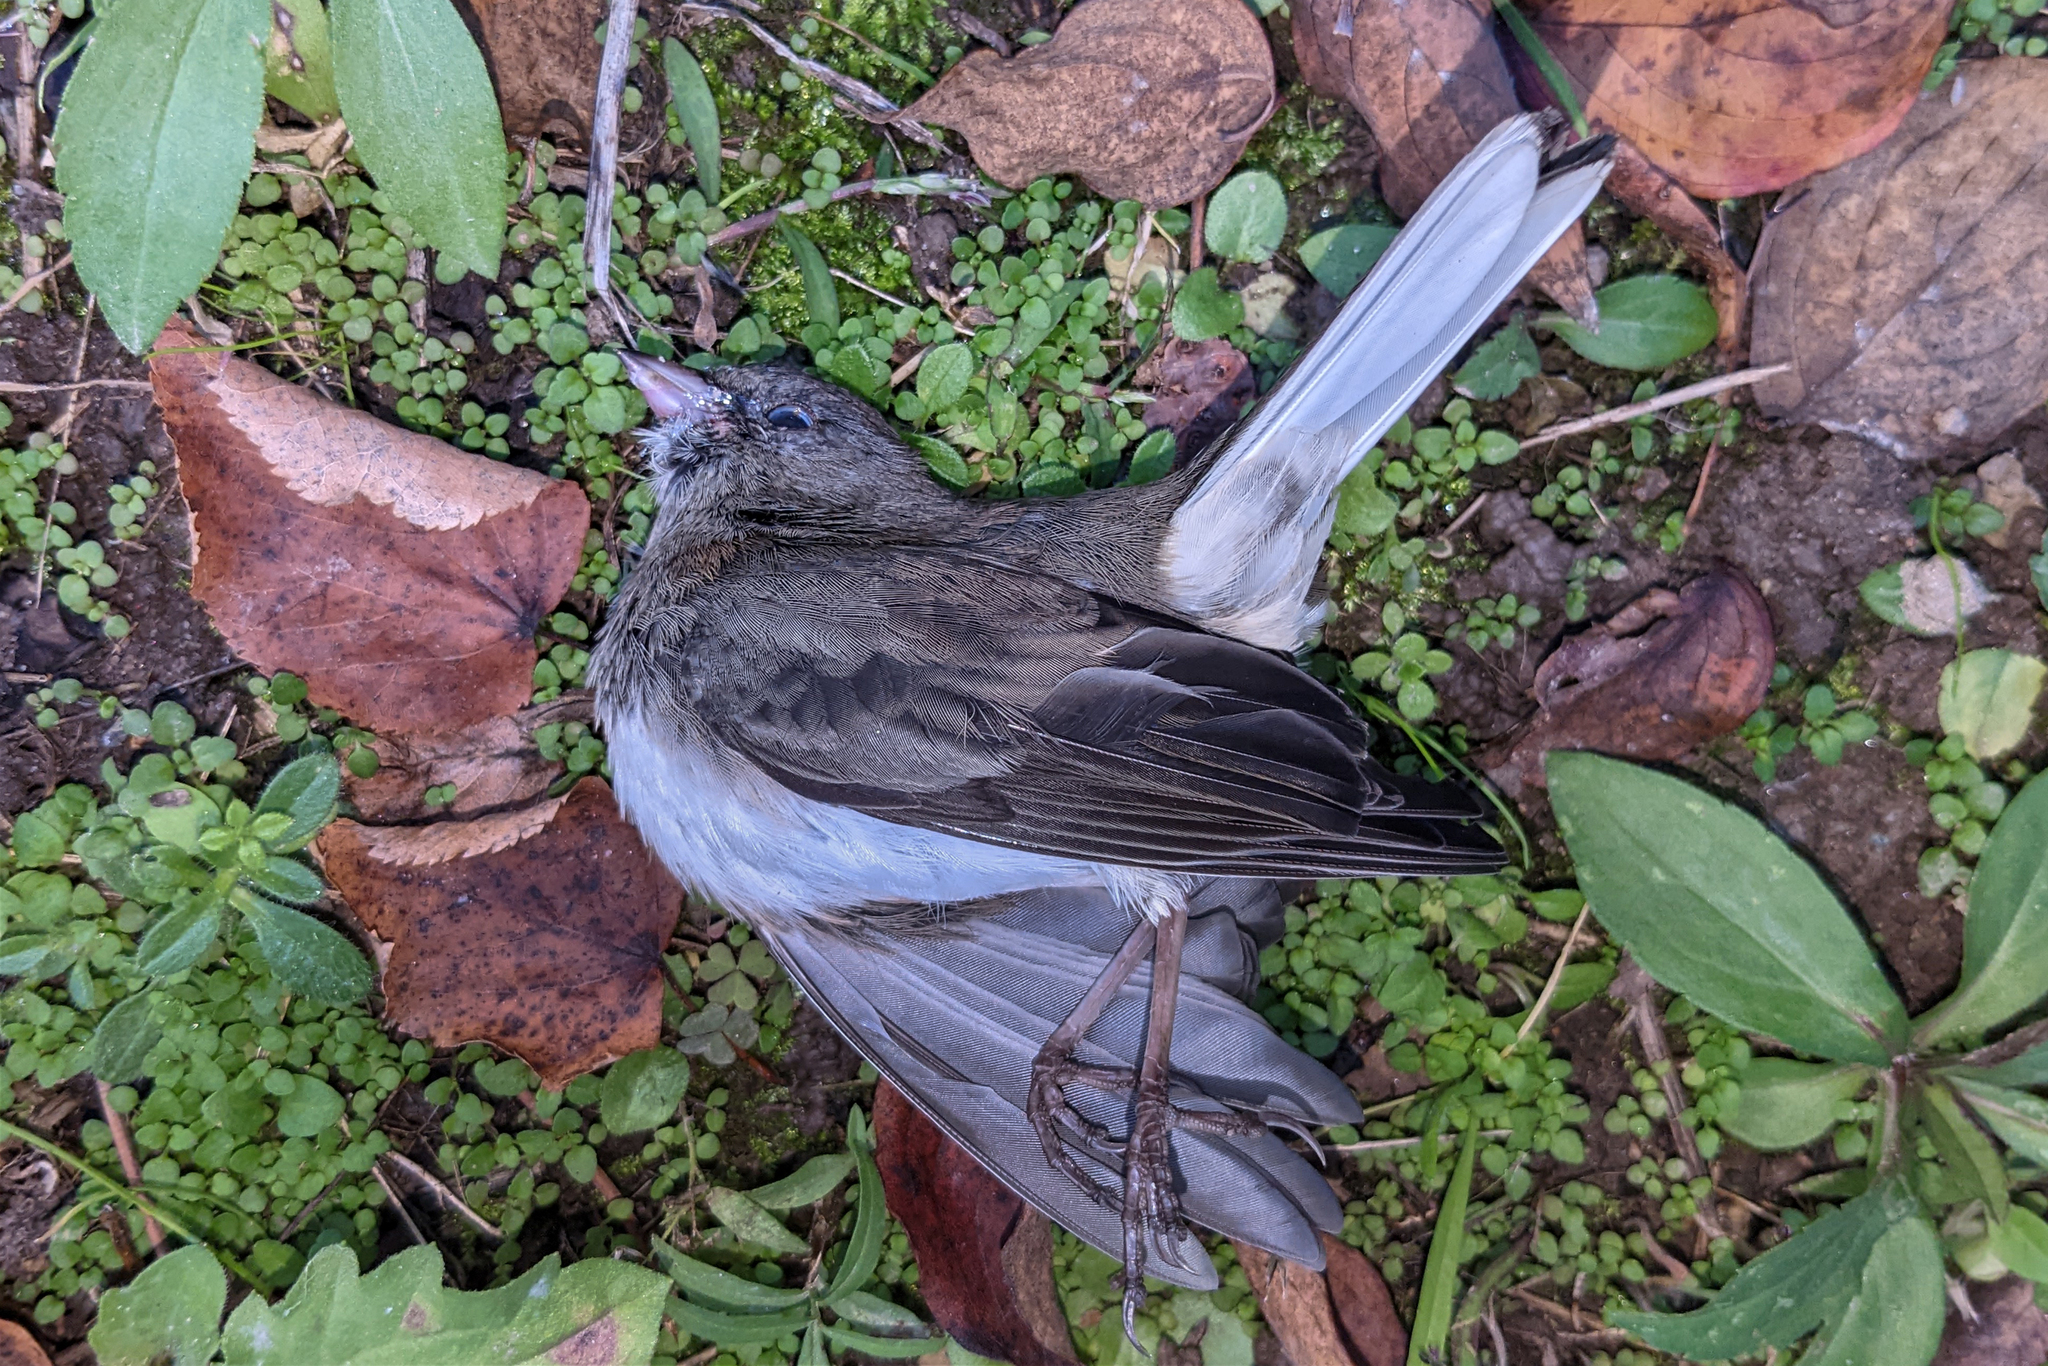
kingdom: Animalia
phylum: Chordata
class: Aves
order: Passeriformes
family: Passerellidae
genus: Junco
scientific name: Junco hyemalis
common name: Dark-eyed junco
